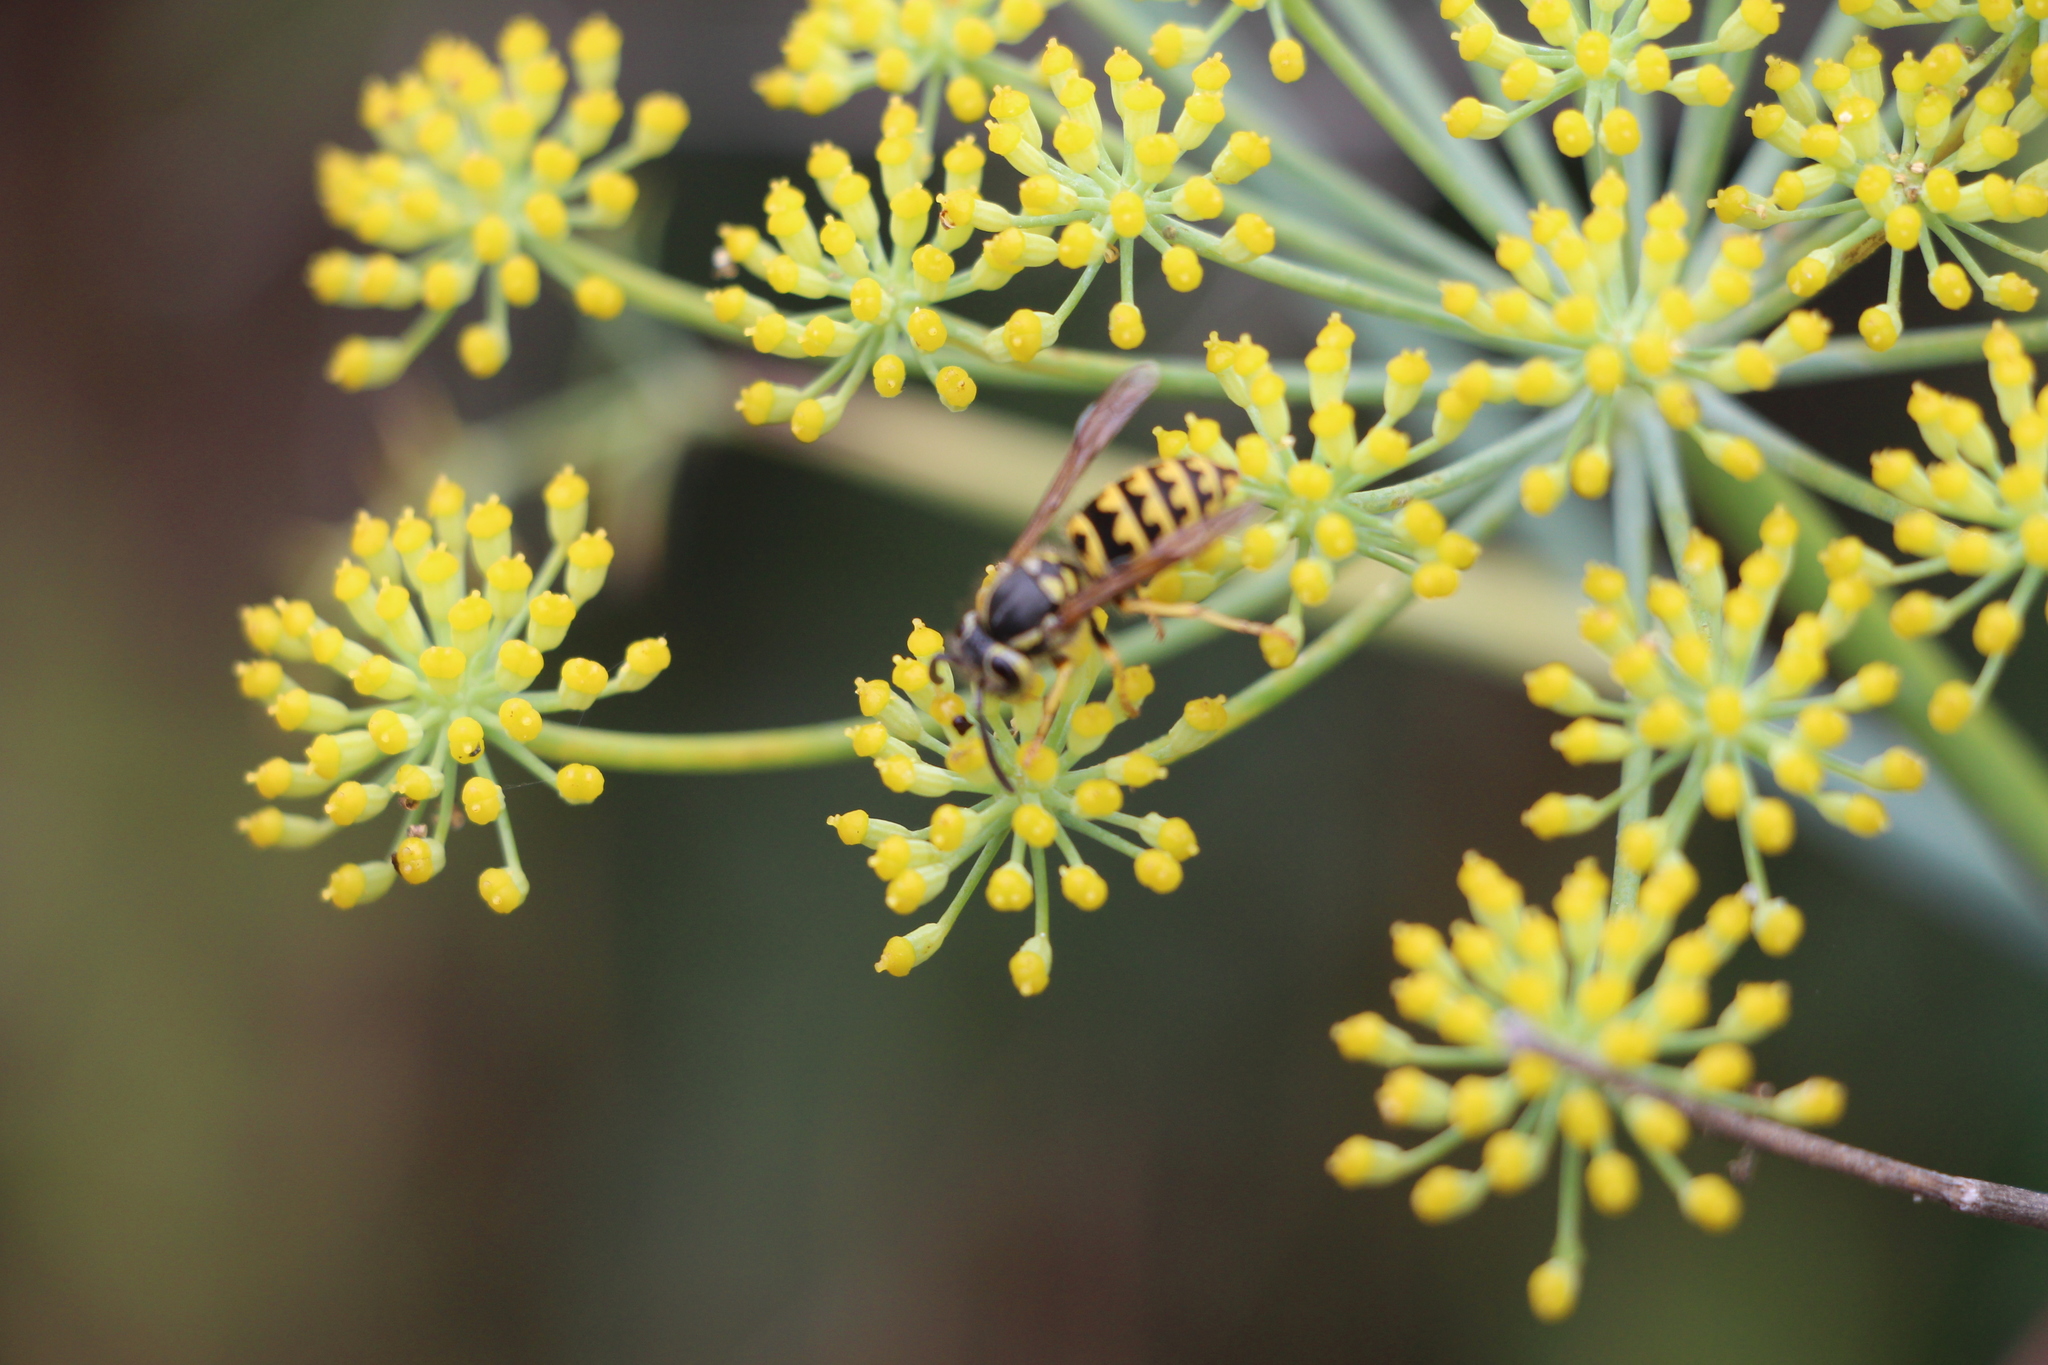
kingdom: Animalia
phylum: Arthropoda
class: Insecta
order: Hymenoptera
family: Vespidae
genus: Vespula
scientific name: Vespula pensylvanica
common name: Western yellowjacket
